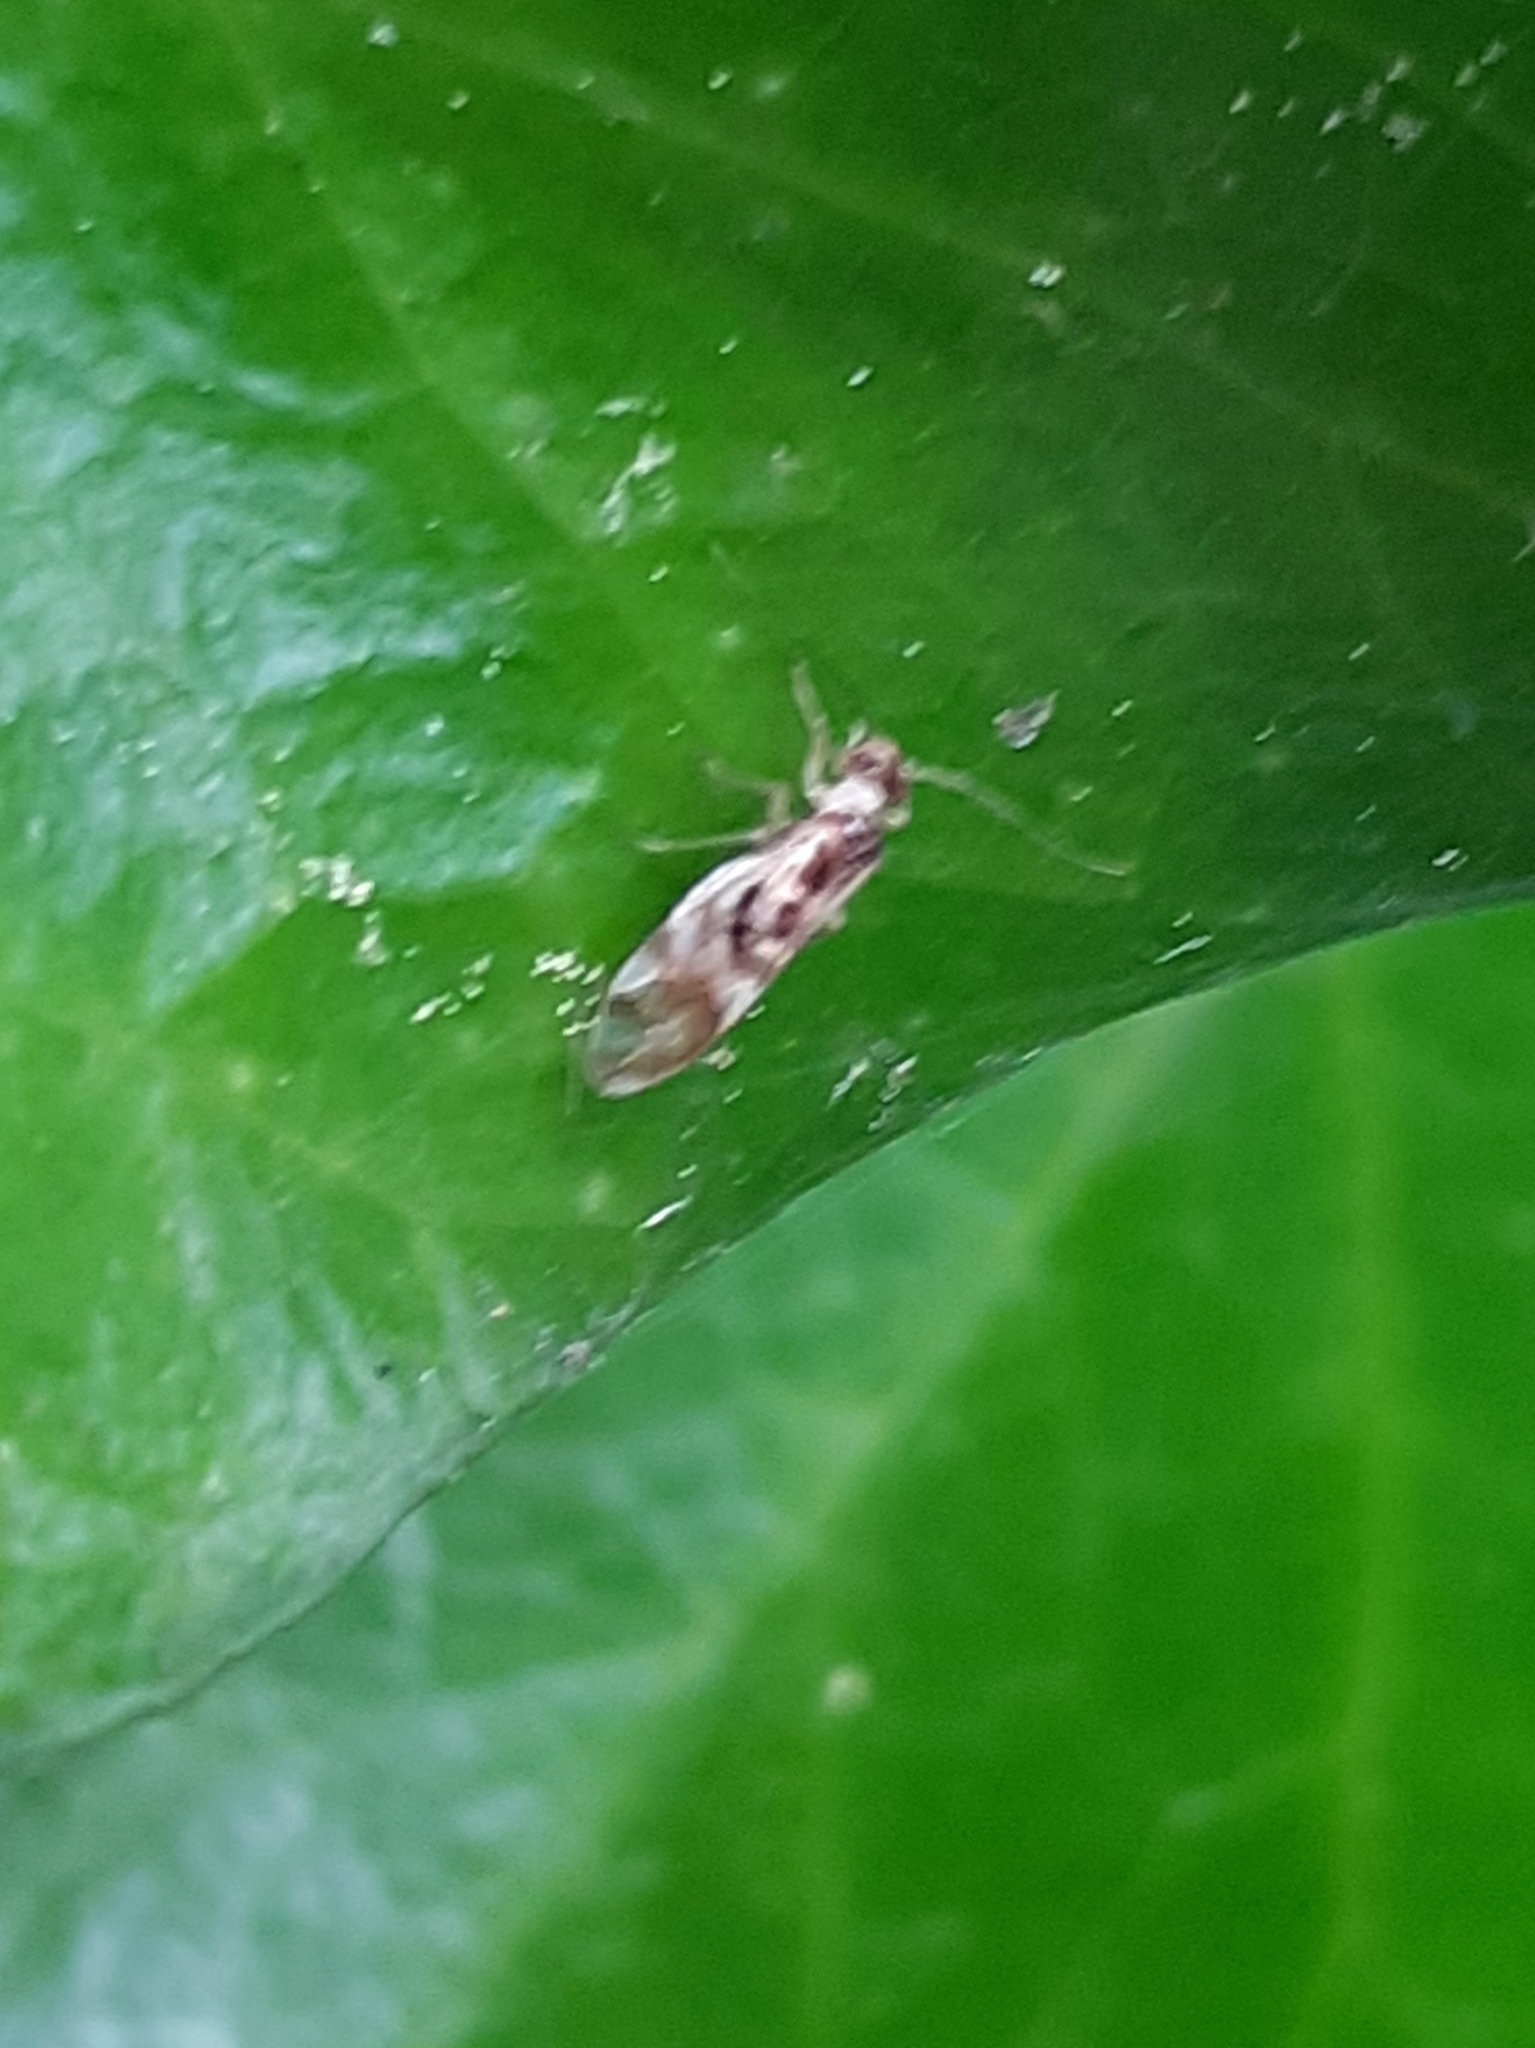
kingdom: Animalia
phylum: Arthropoda
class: Insecta
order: Psocodea
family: Stenopsocidae
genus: Graphopsocus
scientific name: Graphopsocus cruciatus
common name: Lizard bark louse
